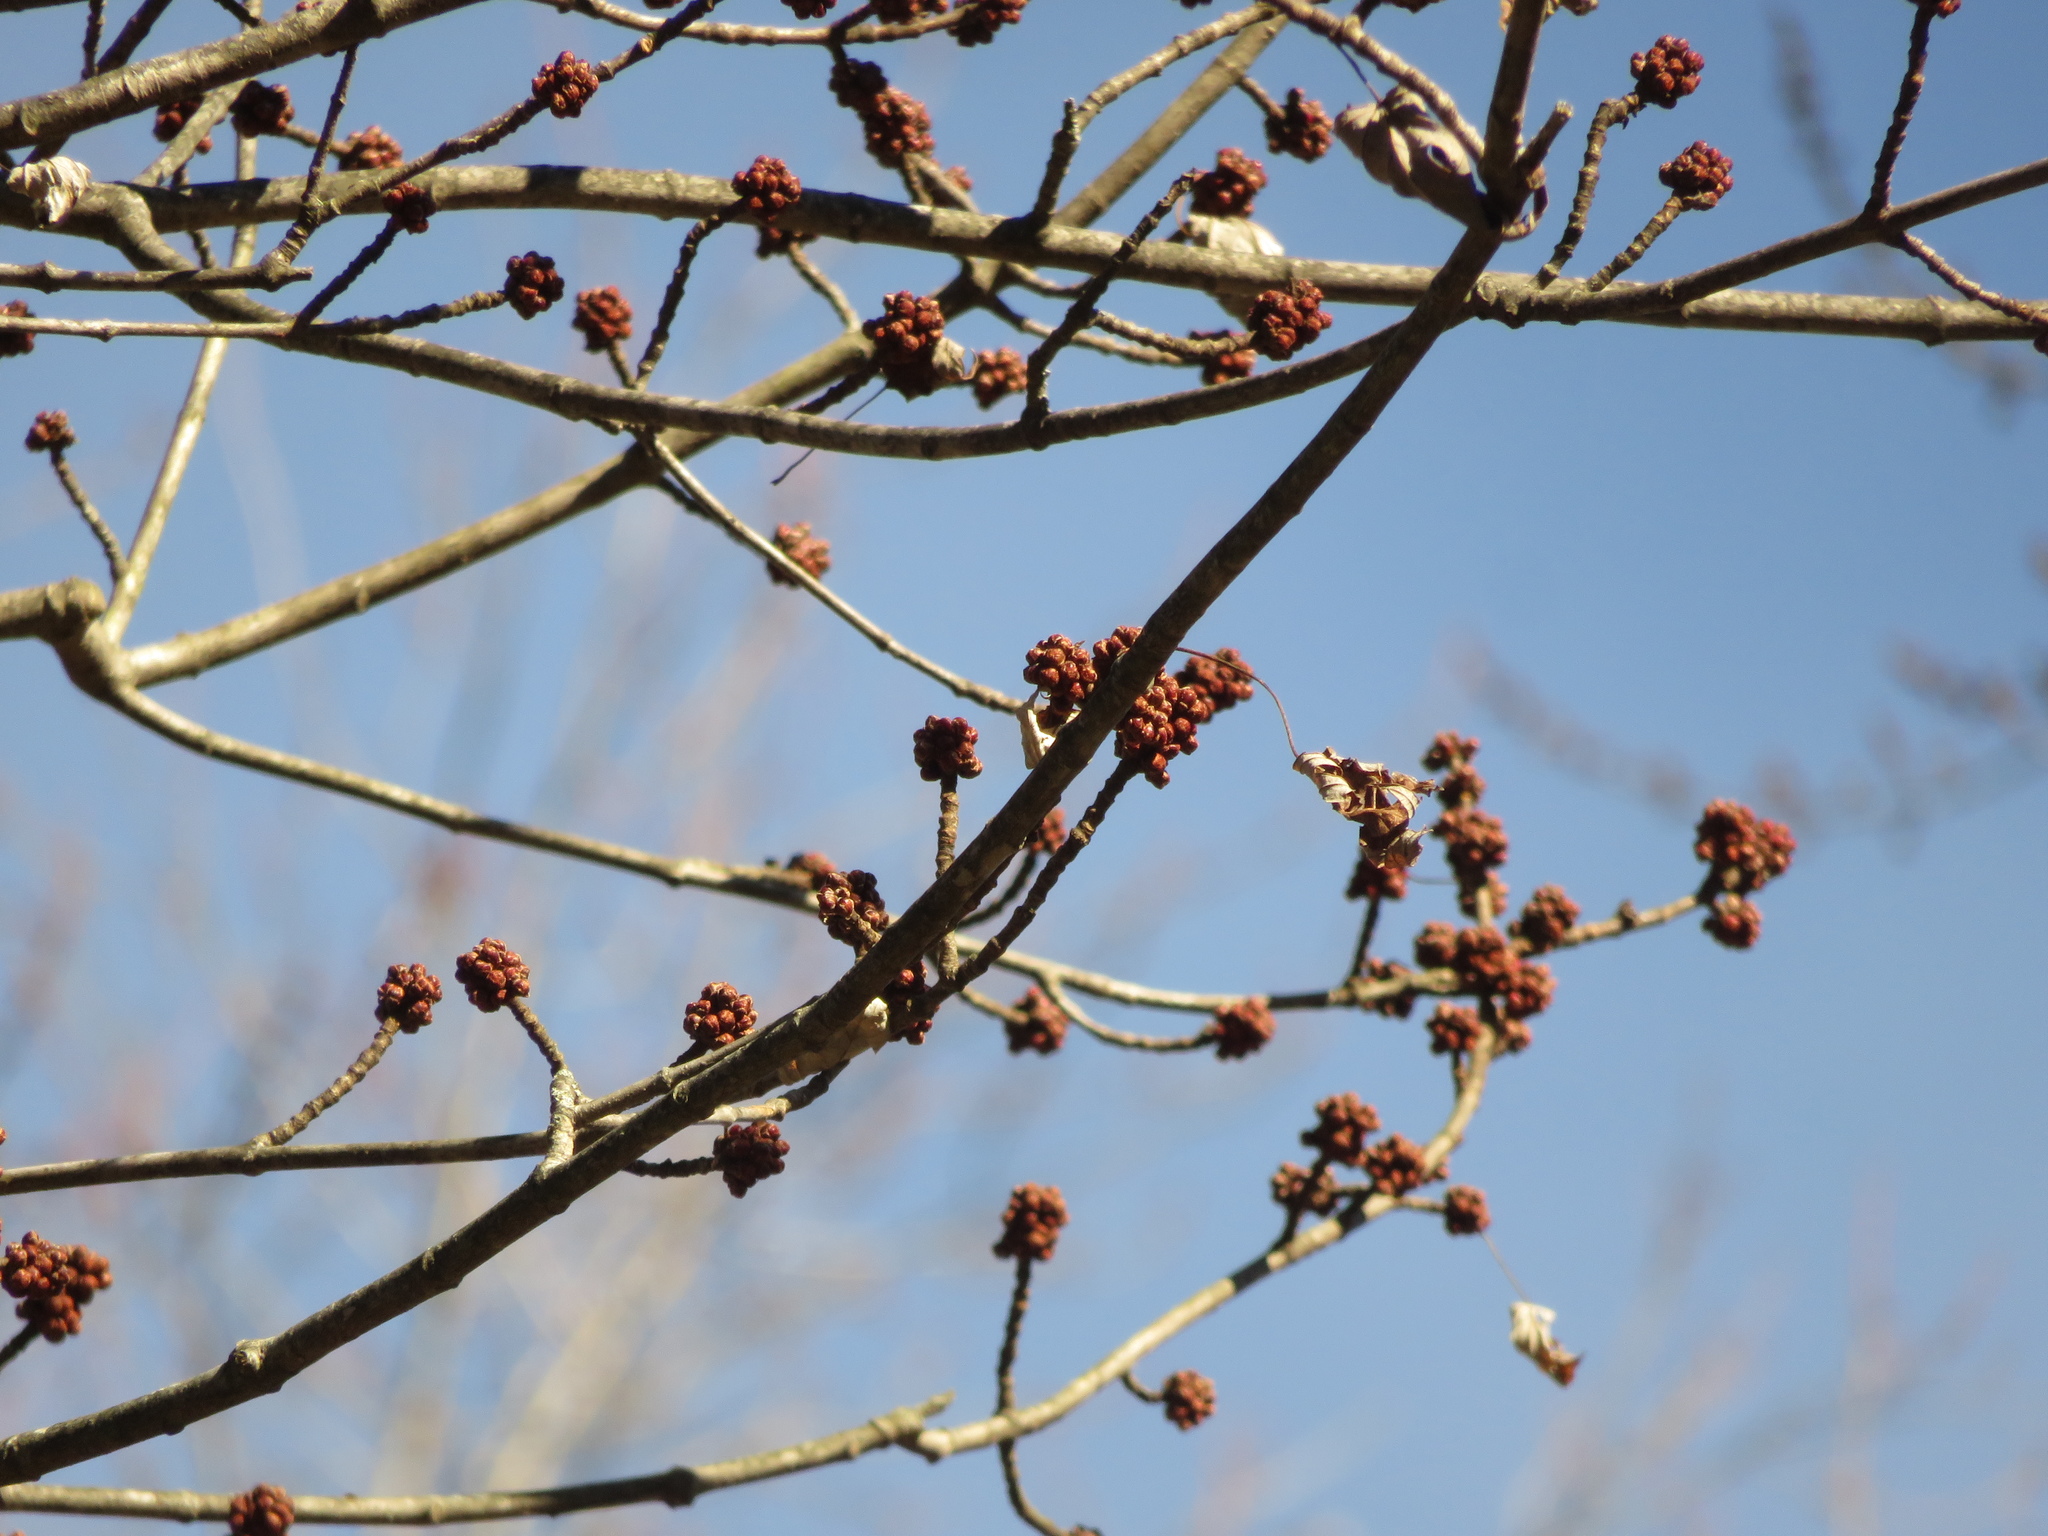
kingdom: Plantae
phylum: Tracheophyta
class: Magnoliopsida
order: Sapindales
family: Sapindaceae
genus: Acer
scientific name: Acer saccharinum
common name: Silver maple
